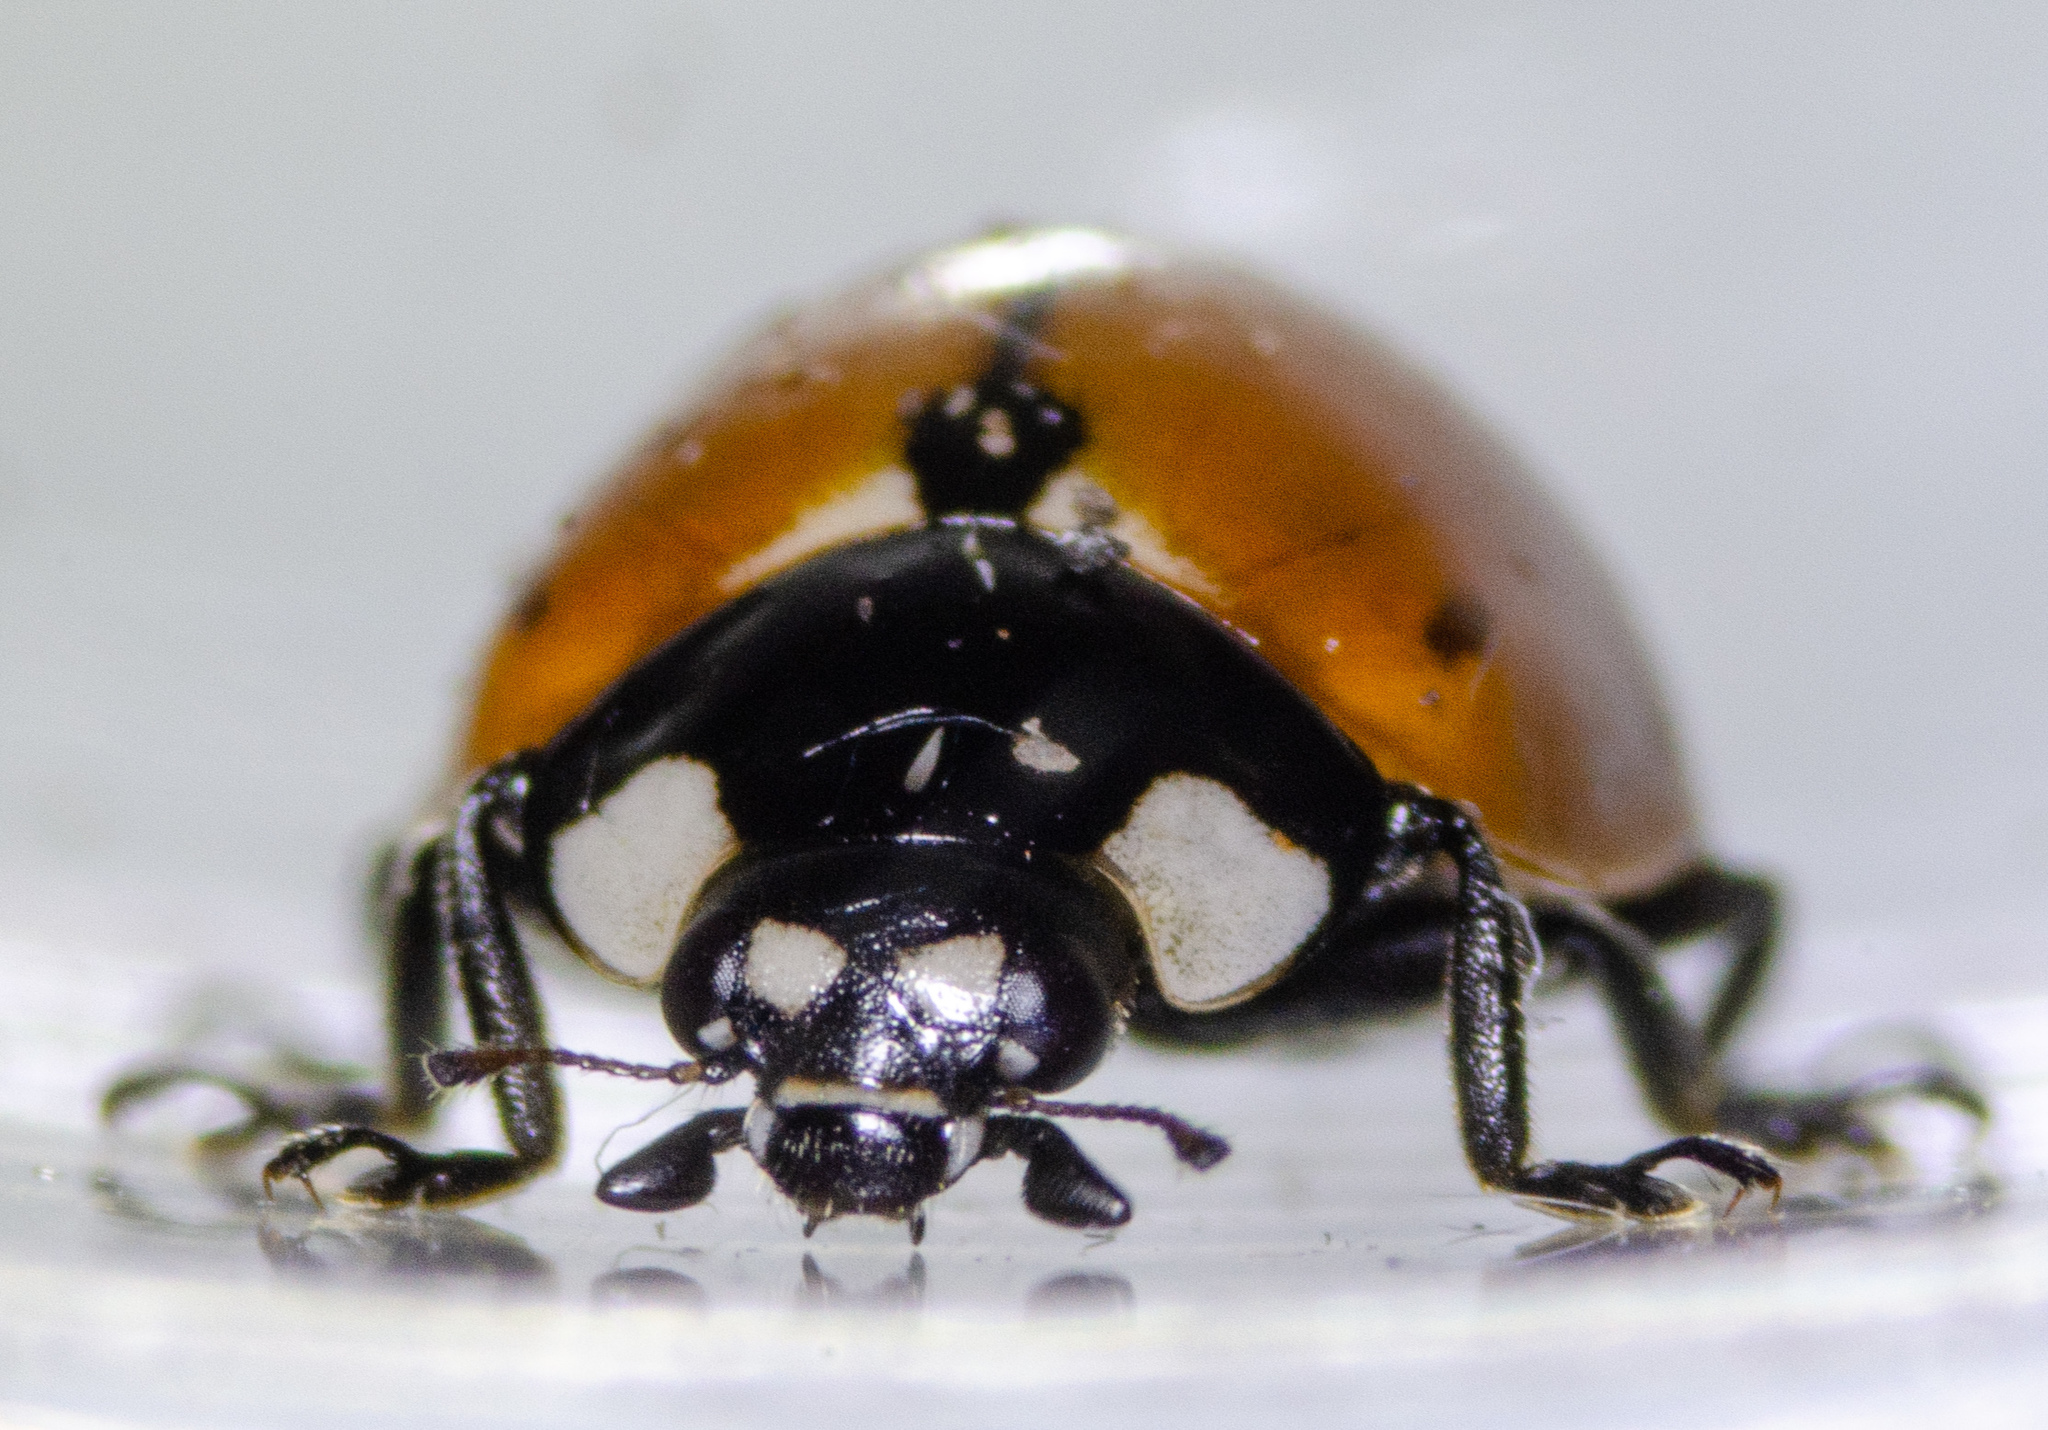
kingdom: Animalia
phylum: Arthropoda
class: Insecta
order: Coleoptera
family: Coccinellidae
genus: Coccinella
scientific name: Coccinella californica
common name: Lady beetle
